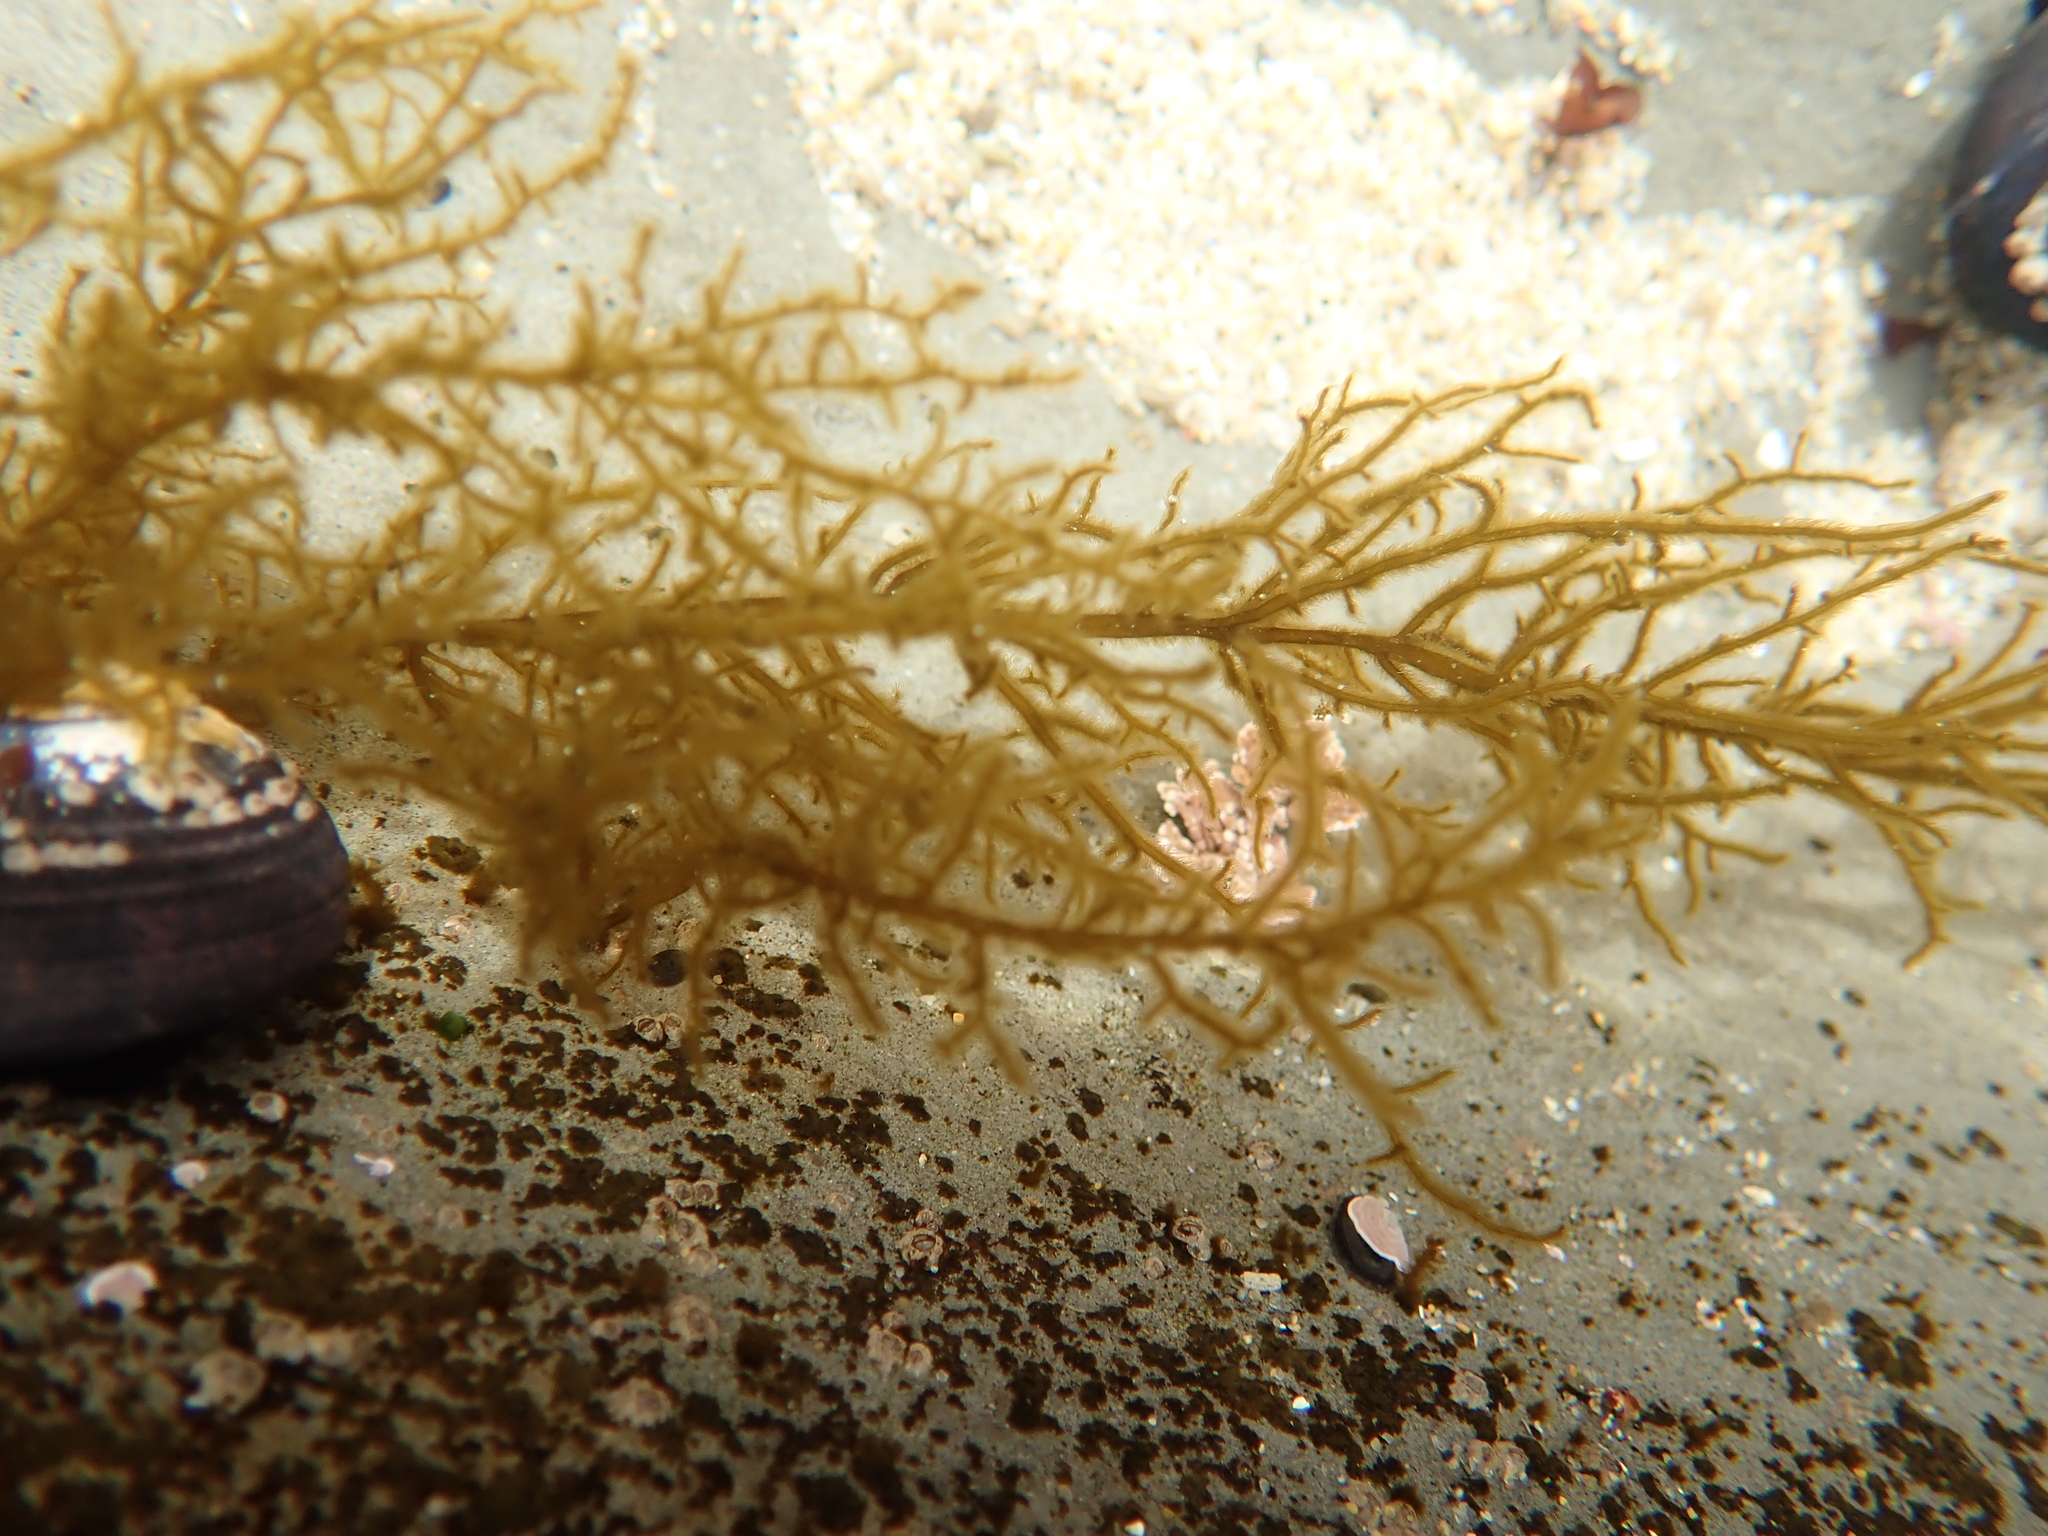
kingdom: Chromista
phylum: Ochrophyta
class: Phaeophyceae
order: Ectocarpales
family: Chordariaceae
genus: Haplogloia
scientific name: Haplogloia andersonii
